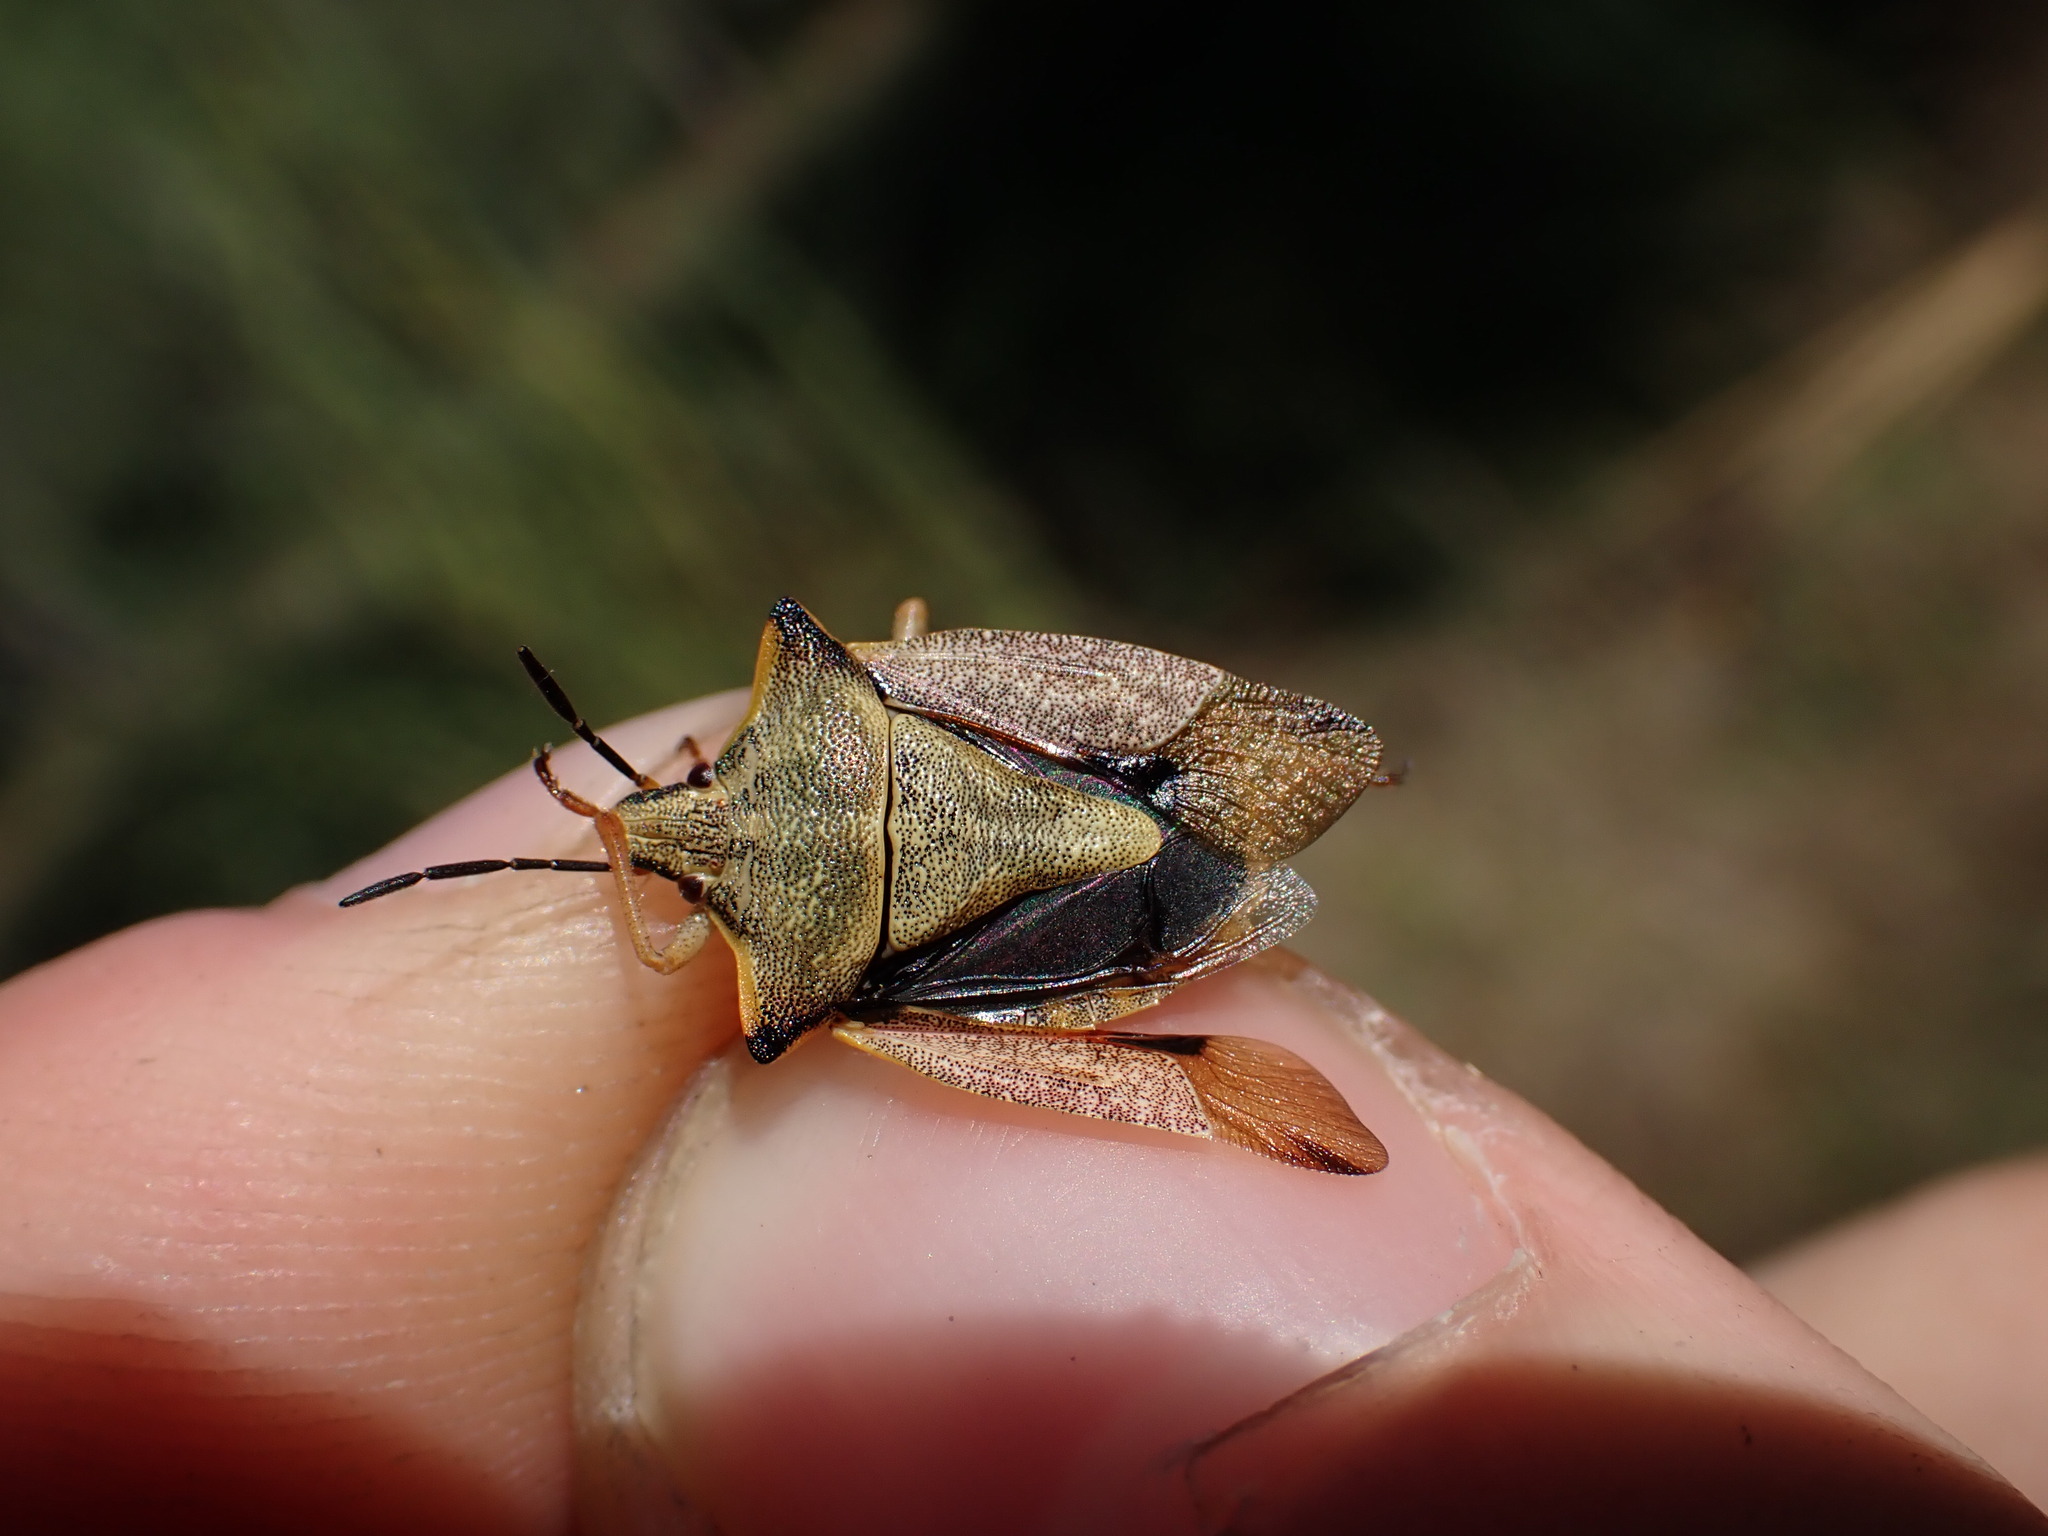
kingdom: Animalia
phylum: Arthropoda
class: Insecta
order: Hemiptera
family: Pentatomidae
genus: Carpocoris
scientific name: Carpocoris mediterraneus
